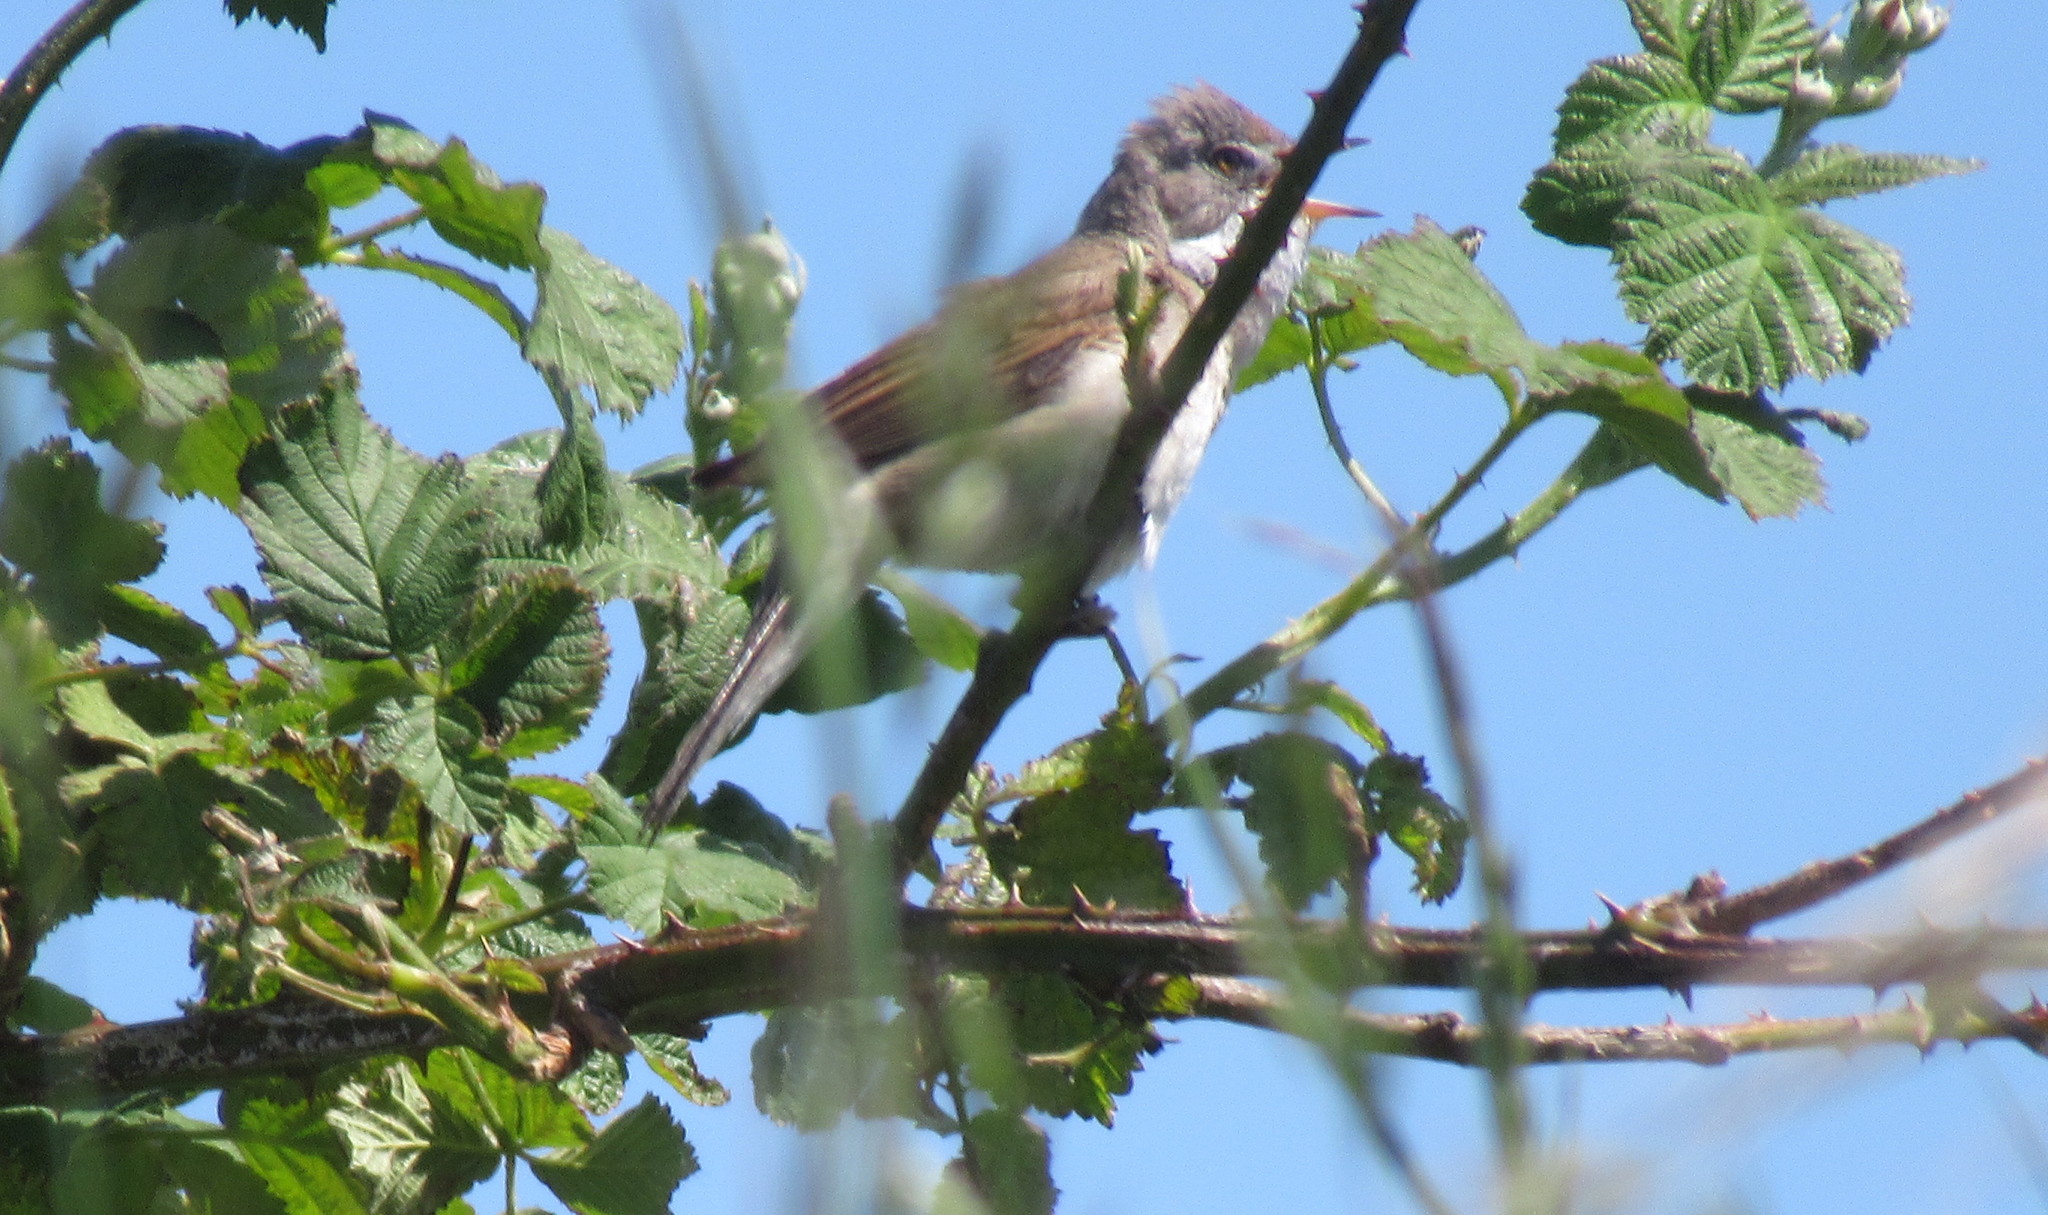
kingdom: Animalia
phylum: Chordata
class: Aves
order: Passeriformes
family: Sylviidae
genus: Sylvia
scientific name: Sylvia communis
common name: Common whitethroat
